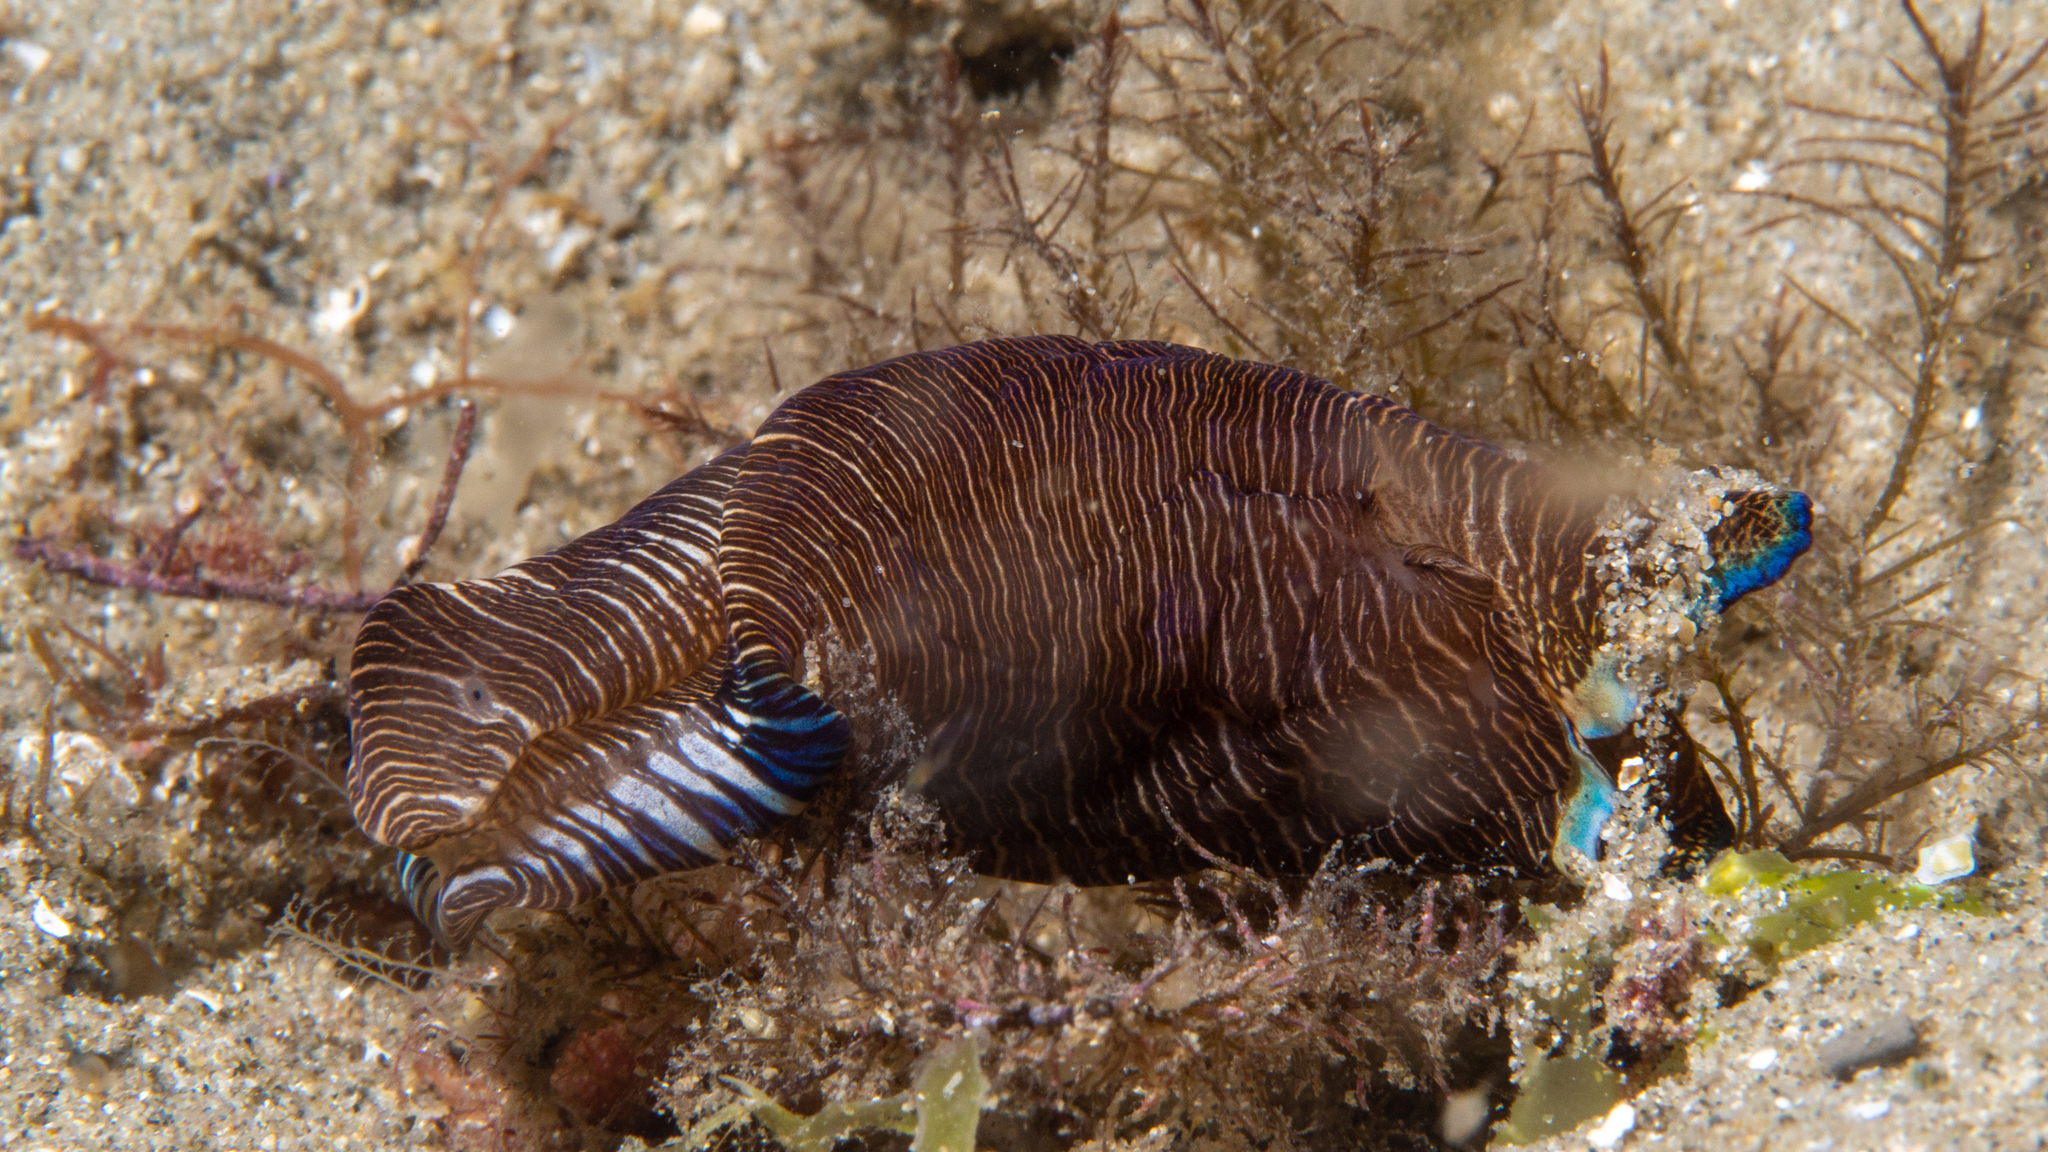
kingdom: Animalia
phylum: Mollusca
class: Gastropoda
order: Cephalaspidea
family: Aglajidae
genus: Tubulophilinopsis
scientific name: Tubulophilinopsis lineolata
